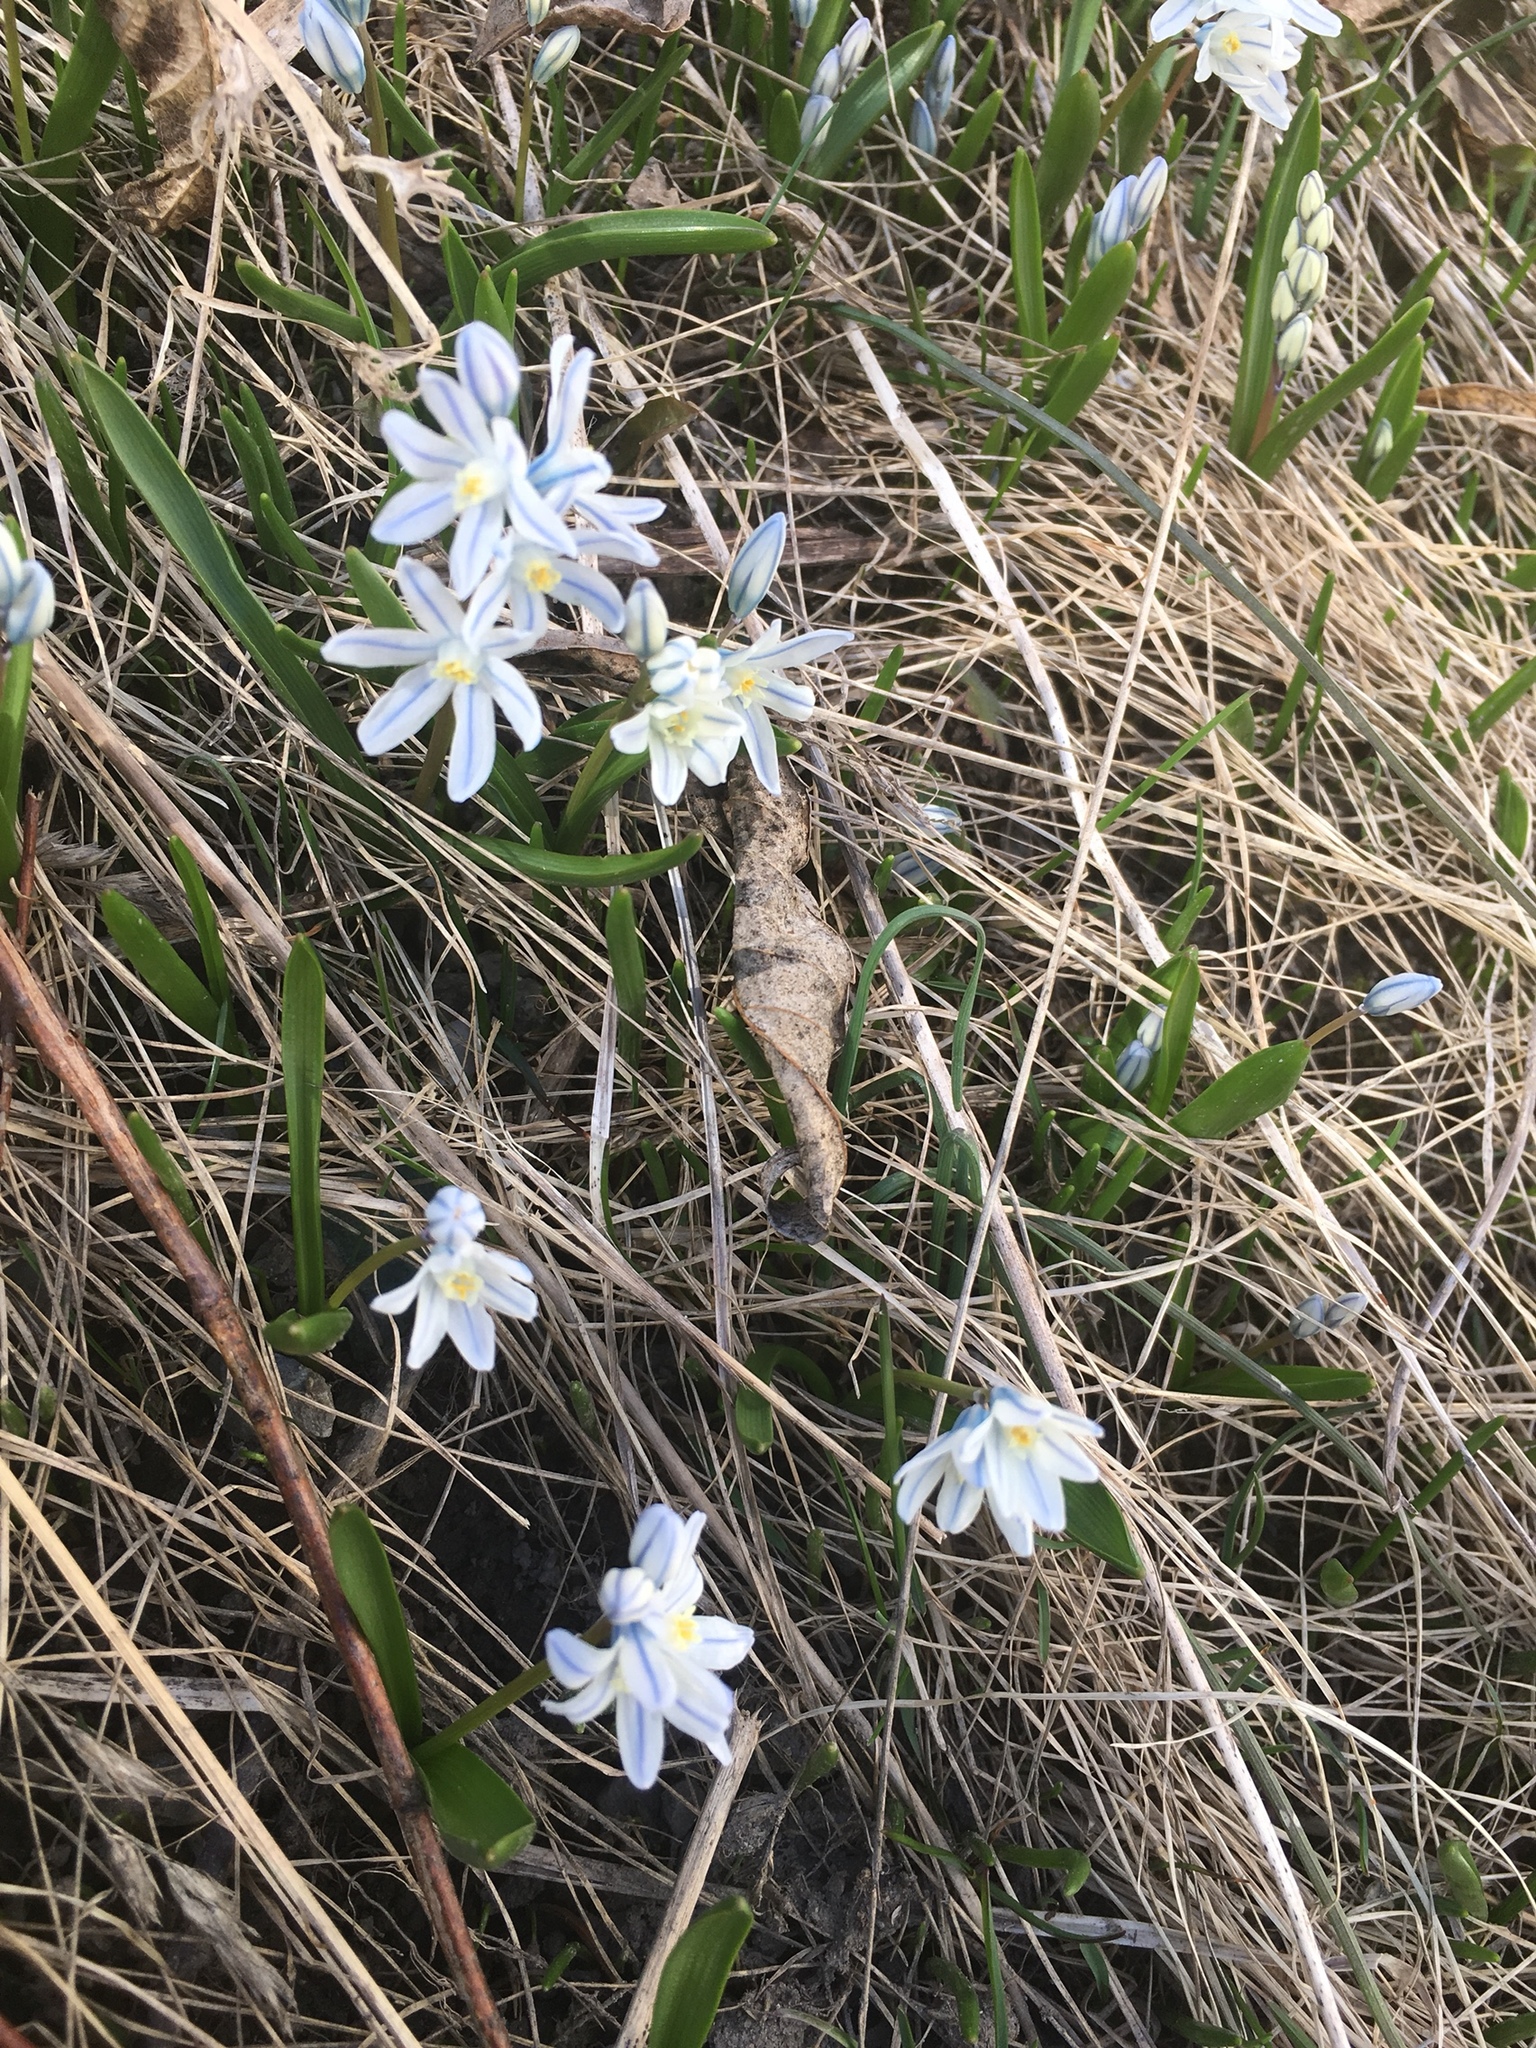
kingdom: Plantae
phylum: Tracheophyta
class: Liliopsida
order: Asparagales
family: Asparagaceae
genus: Puschkinia
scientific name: Puschkinia scilloides
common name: Striped squill
